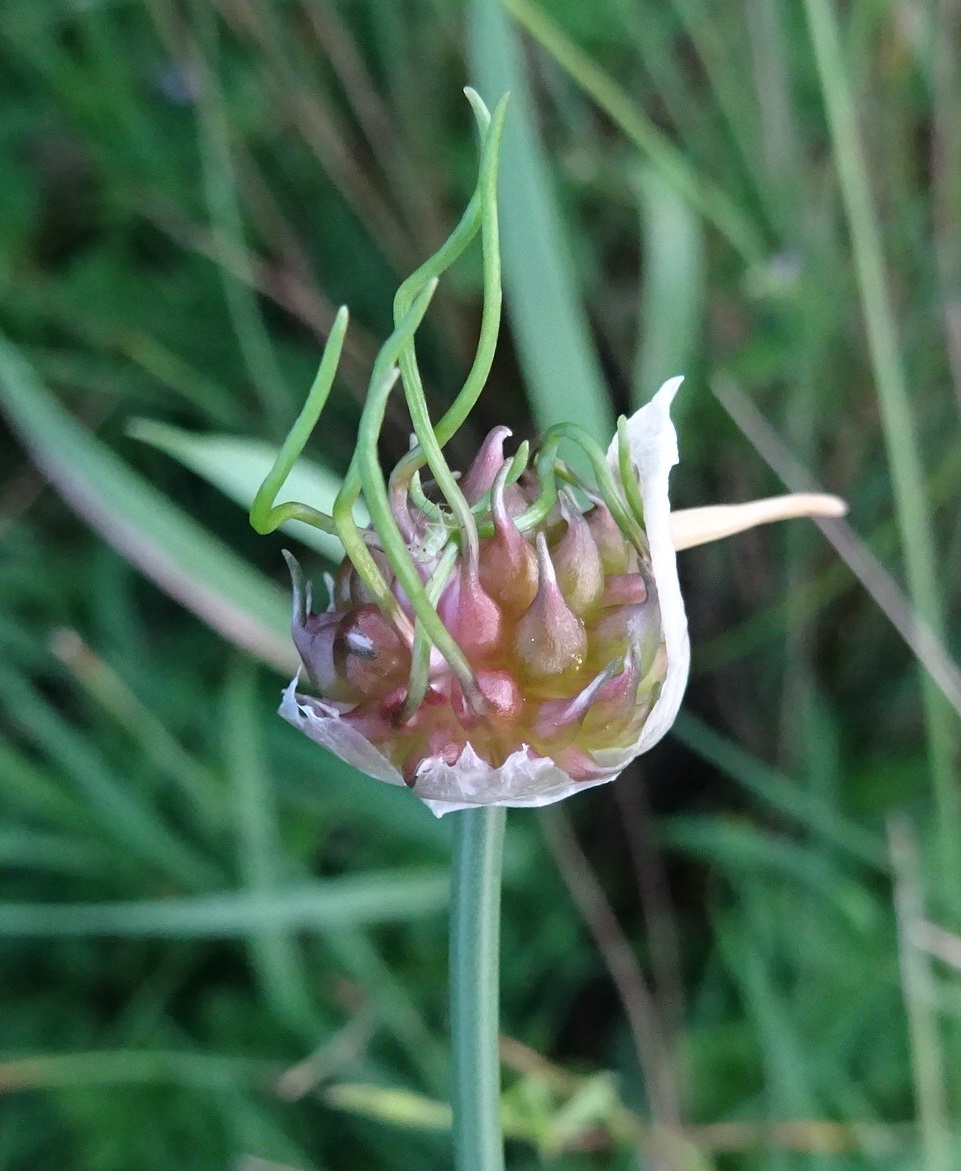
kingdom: Plantae
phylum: Tracheophyta
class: Liliopsida
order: Asparagales
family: Amaryllidaceae
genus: Allium
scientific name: Allium vineale
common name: Crow garlic
